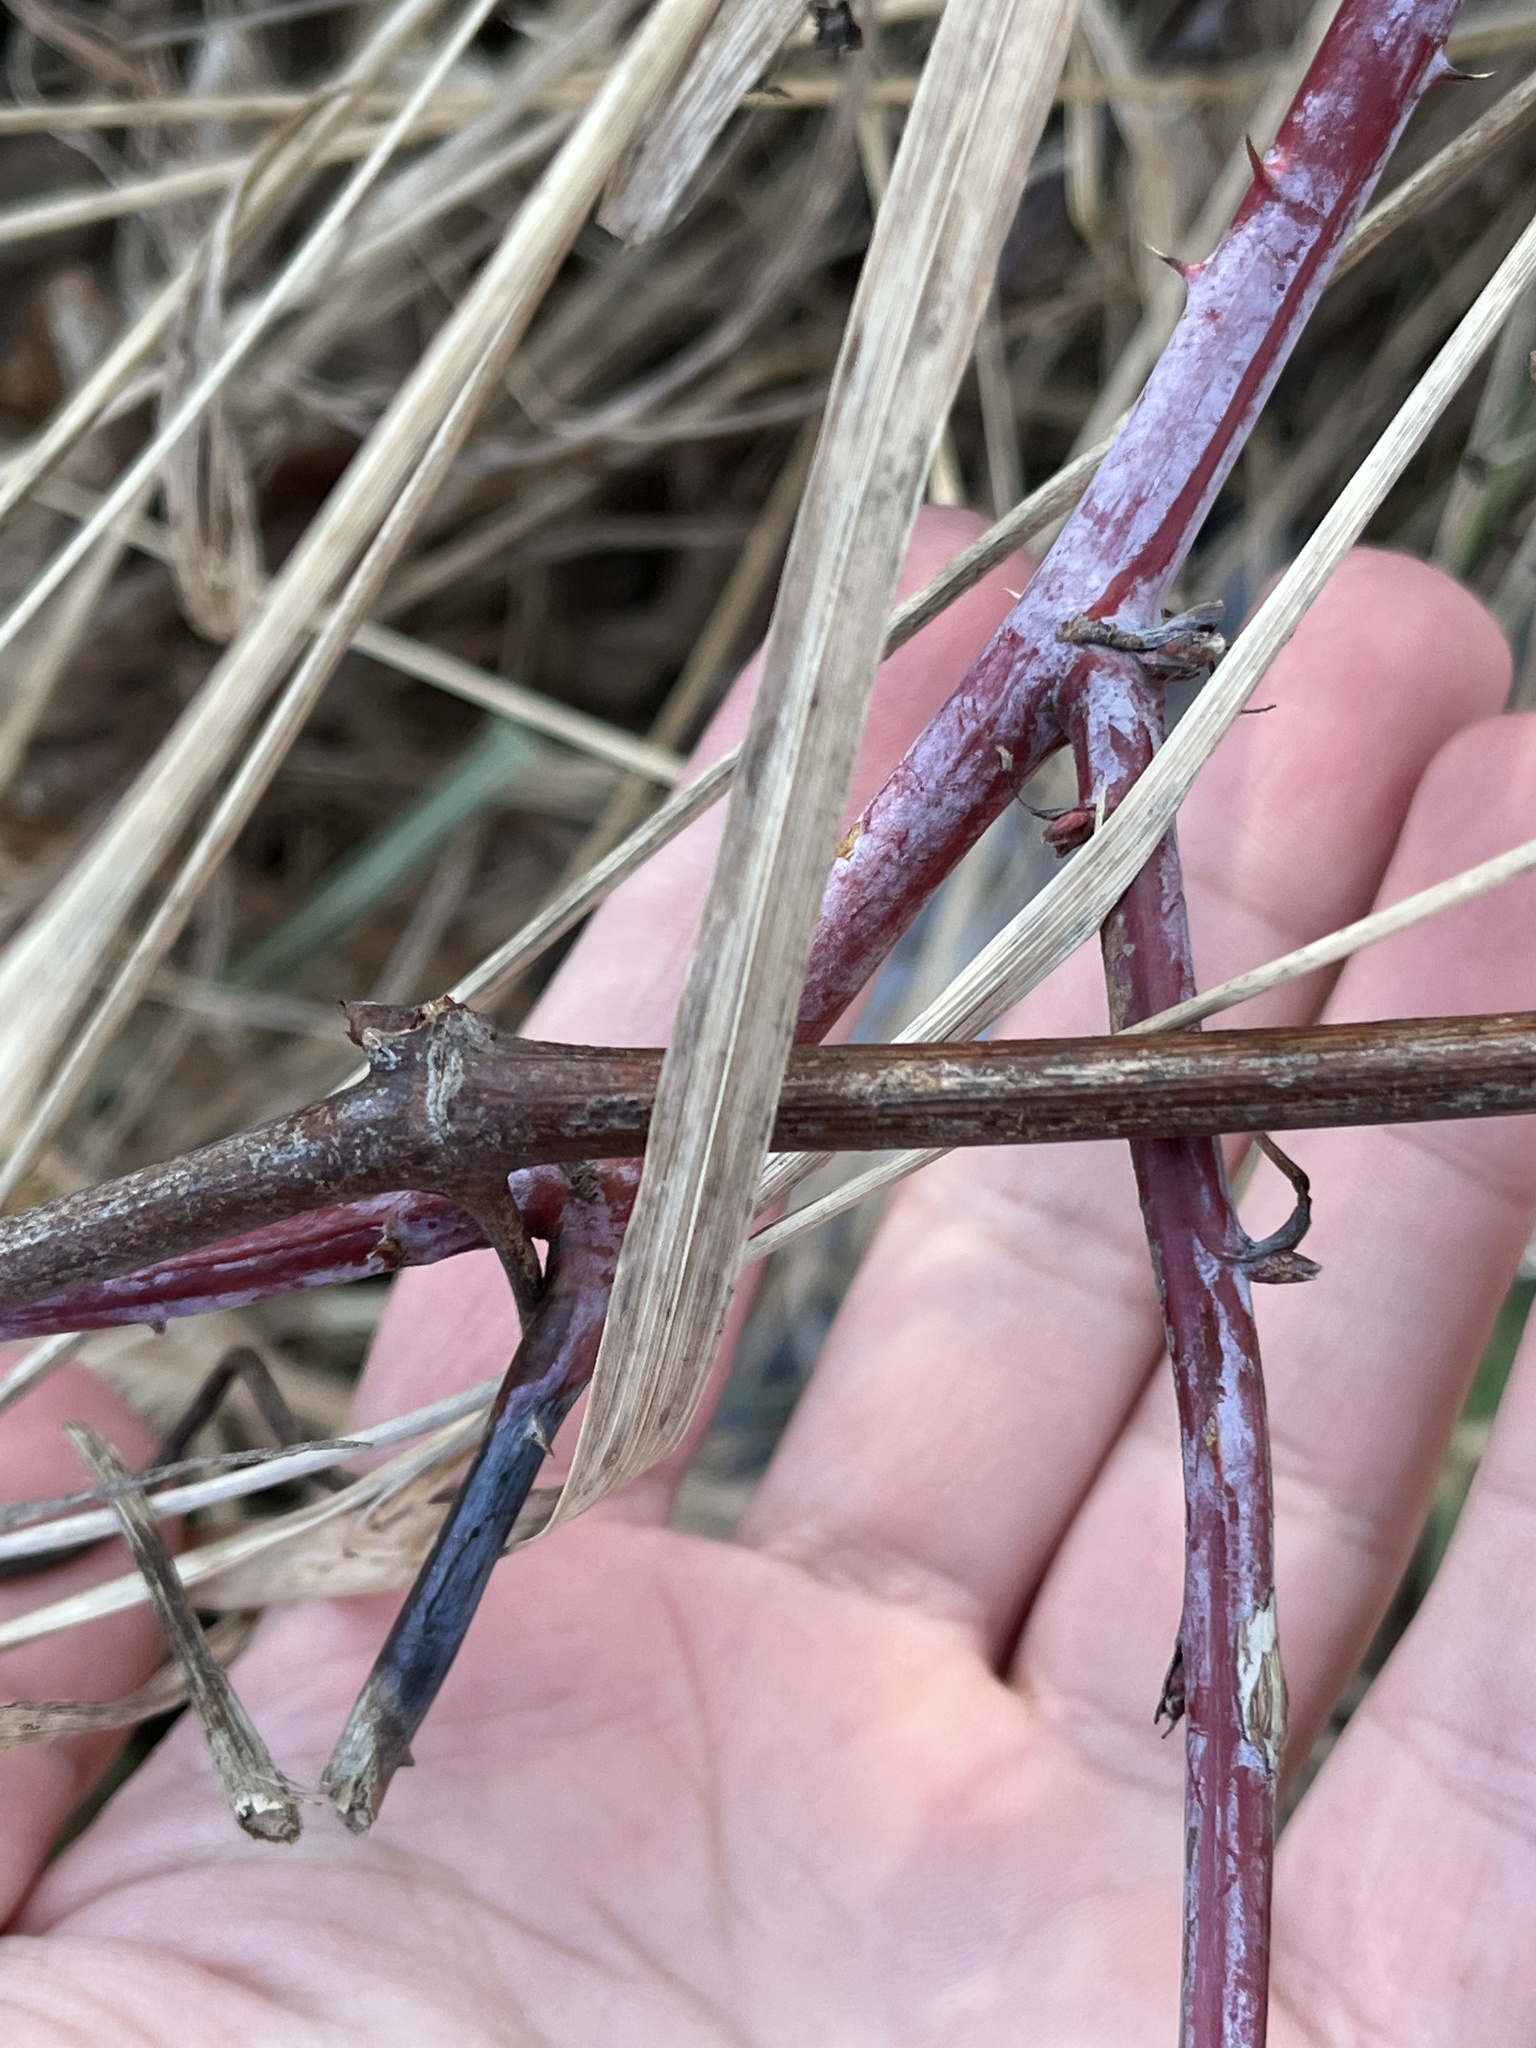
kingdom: Plantae
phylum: Tracheophyta
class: Magnoliopsida
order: Rosales
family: Rosaceae
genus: Rubus
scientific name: Rubus occidentalis
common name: Black raspberry
